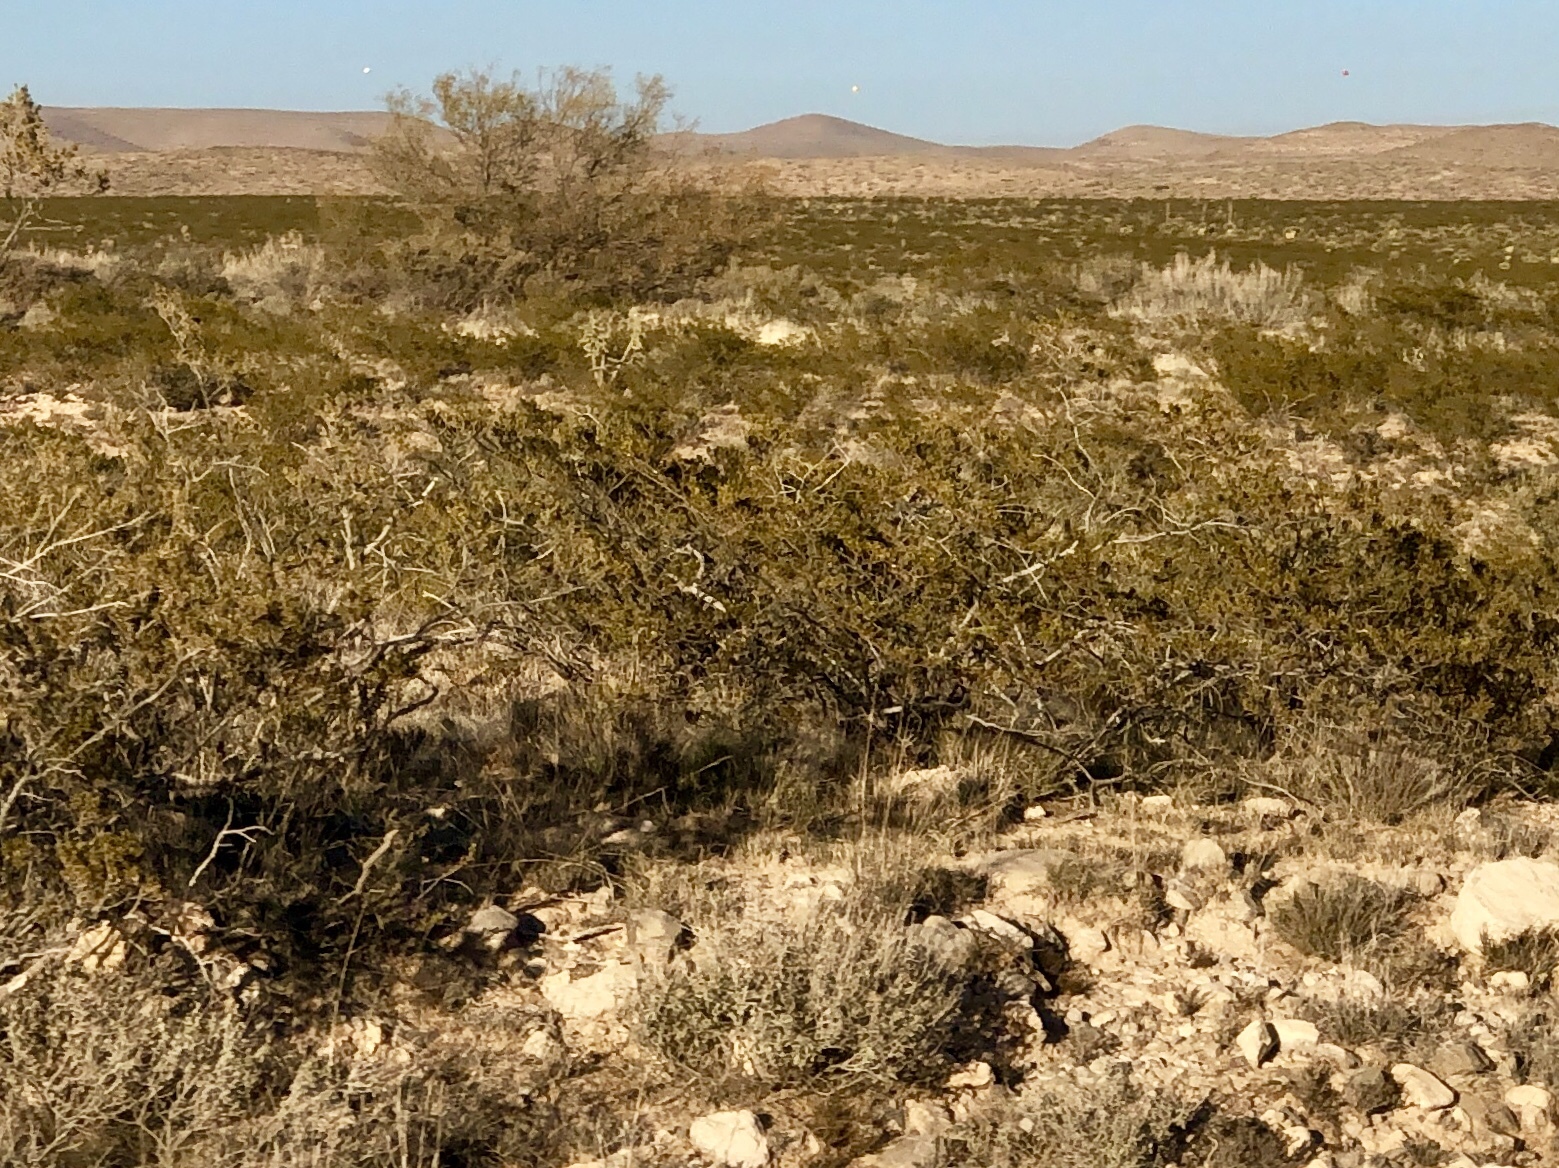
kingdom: Plantae
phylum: Tracheophyta
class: Magnoliopsida
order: Zygophyllales
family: Zygophyllaceae
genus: Larrea
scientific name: Larrea tridentata
